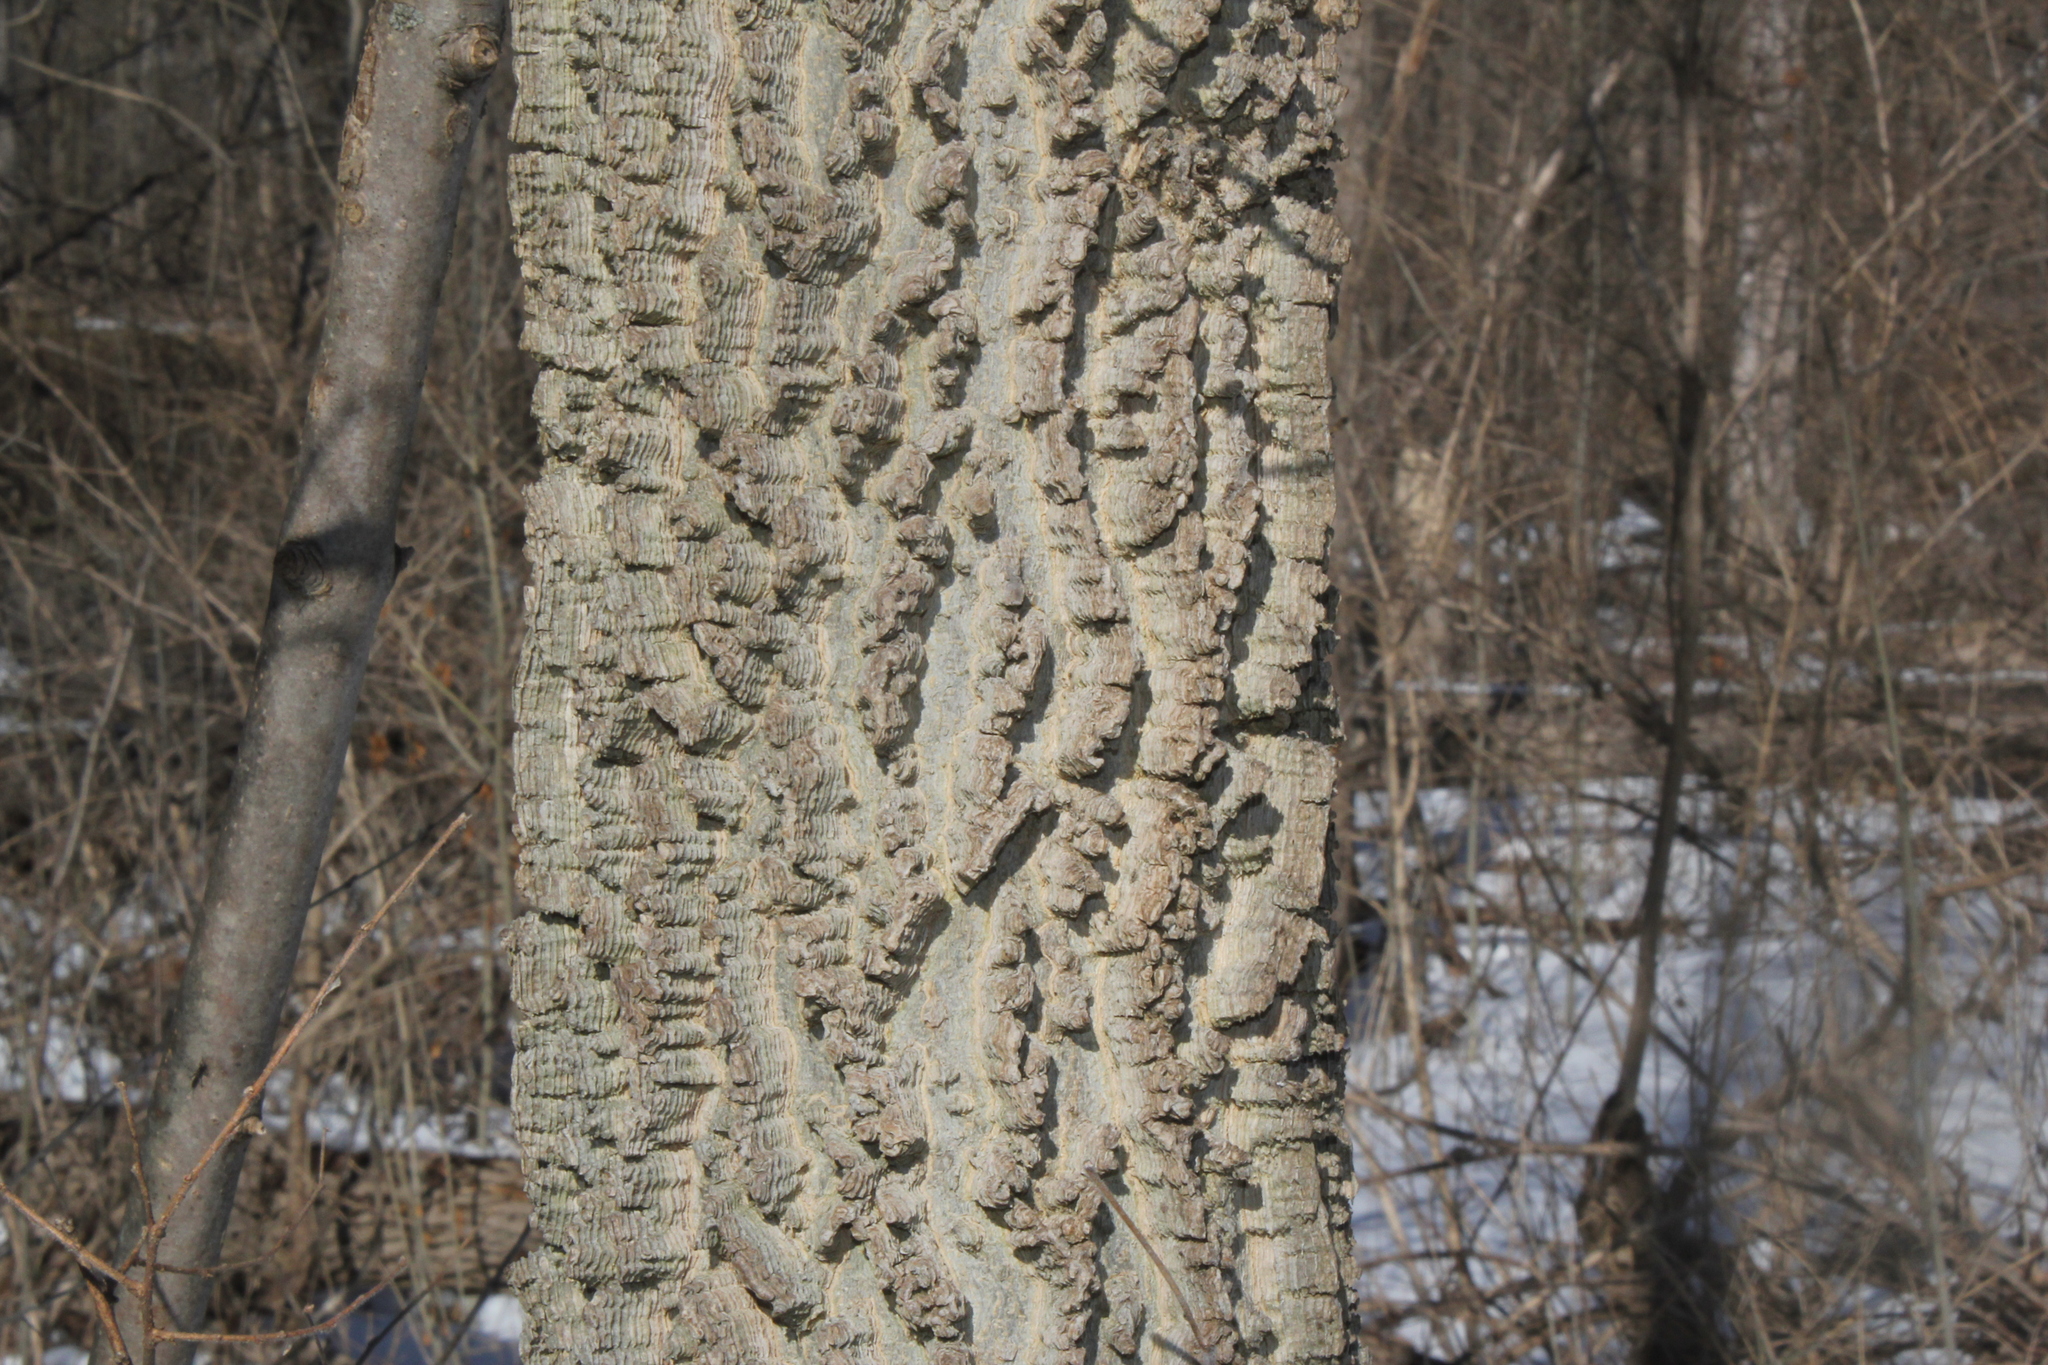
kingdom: Plantae
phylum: Tracheophyta
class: Magnoliopsida
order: Rosales
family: Cannabaceae
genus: Celtis
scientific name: Celtis occidentalis
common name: Common hackberry
